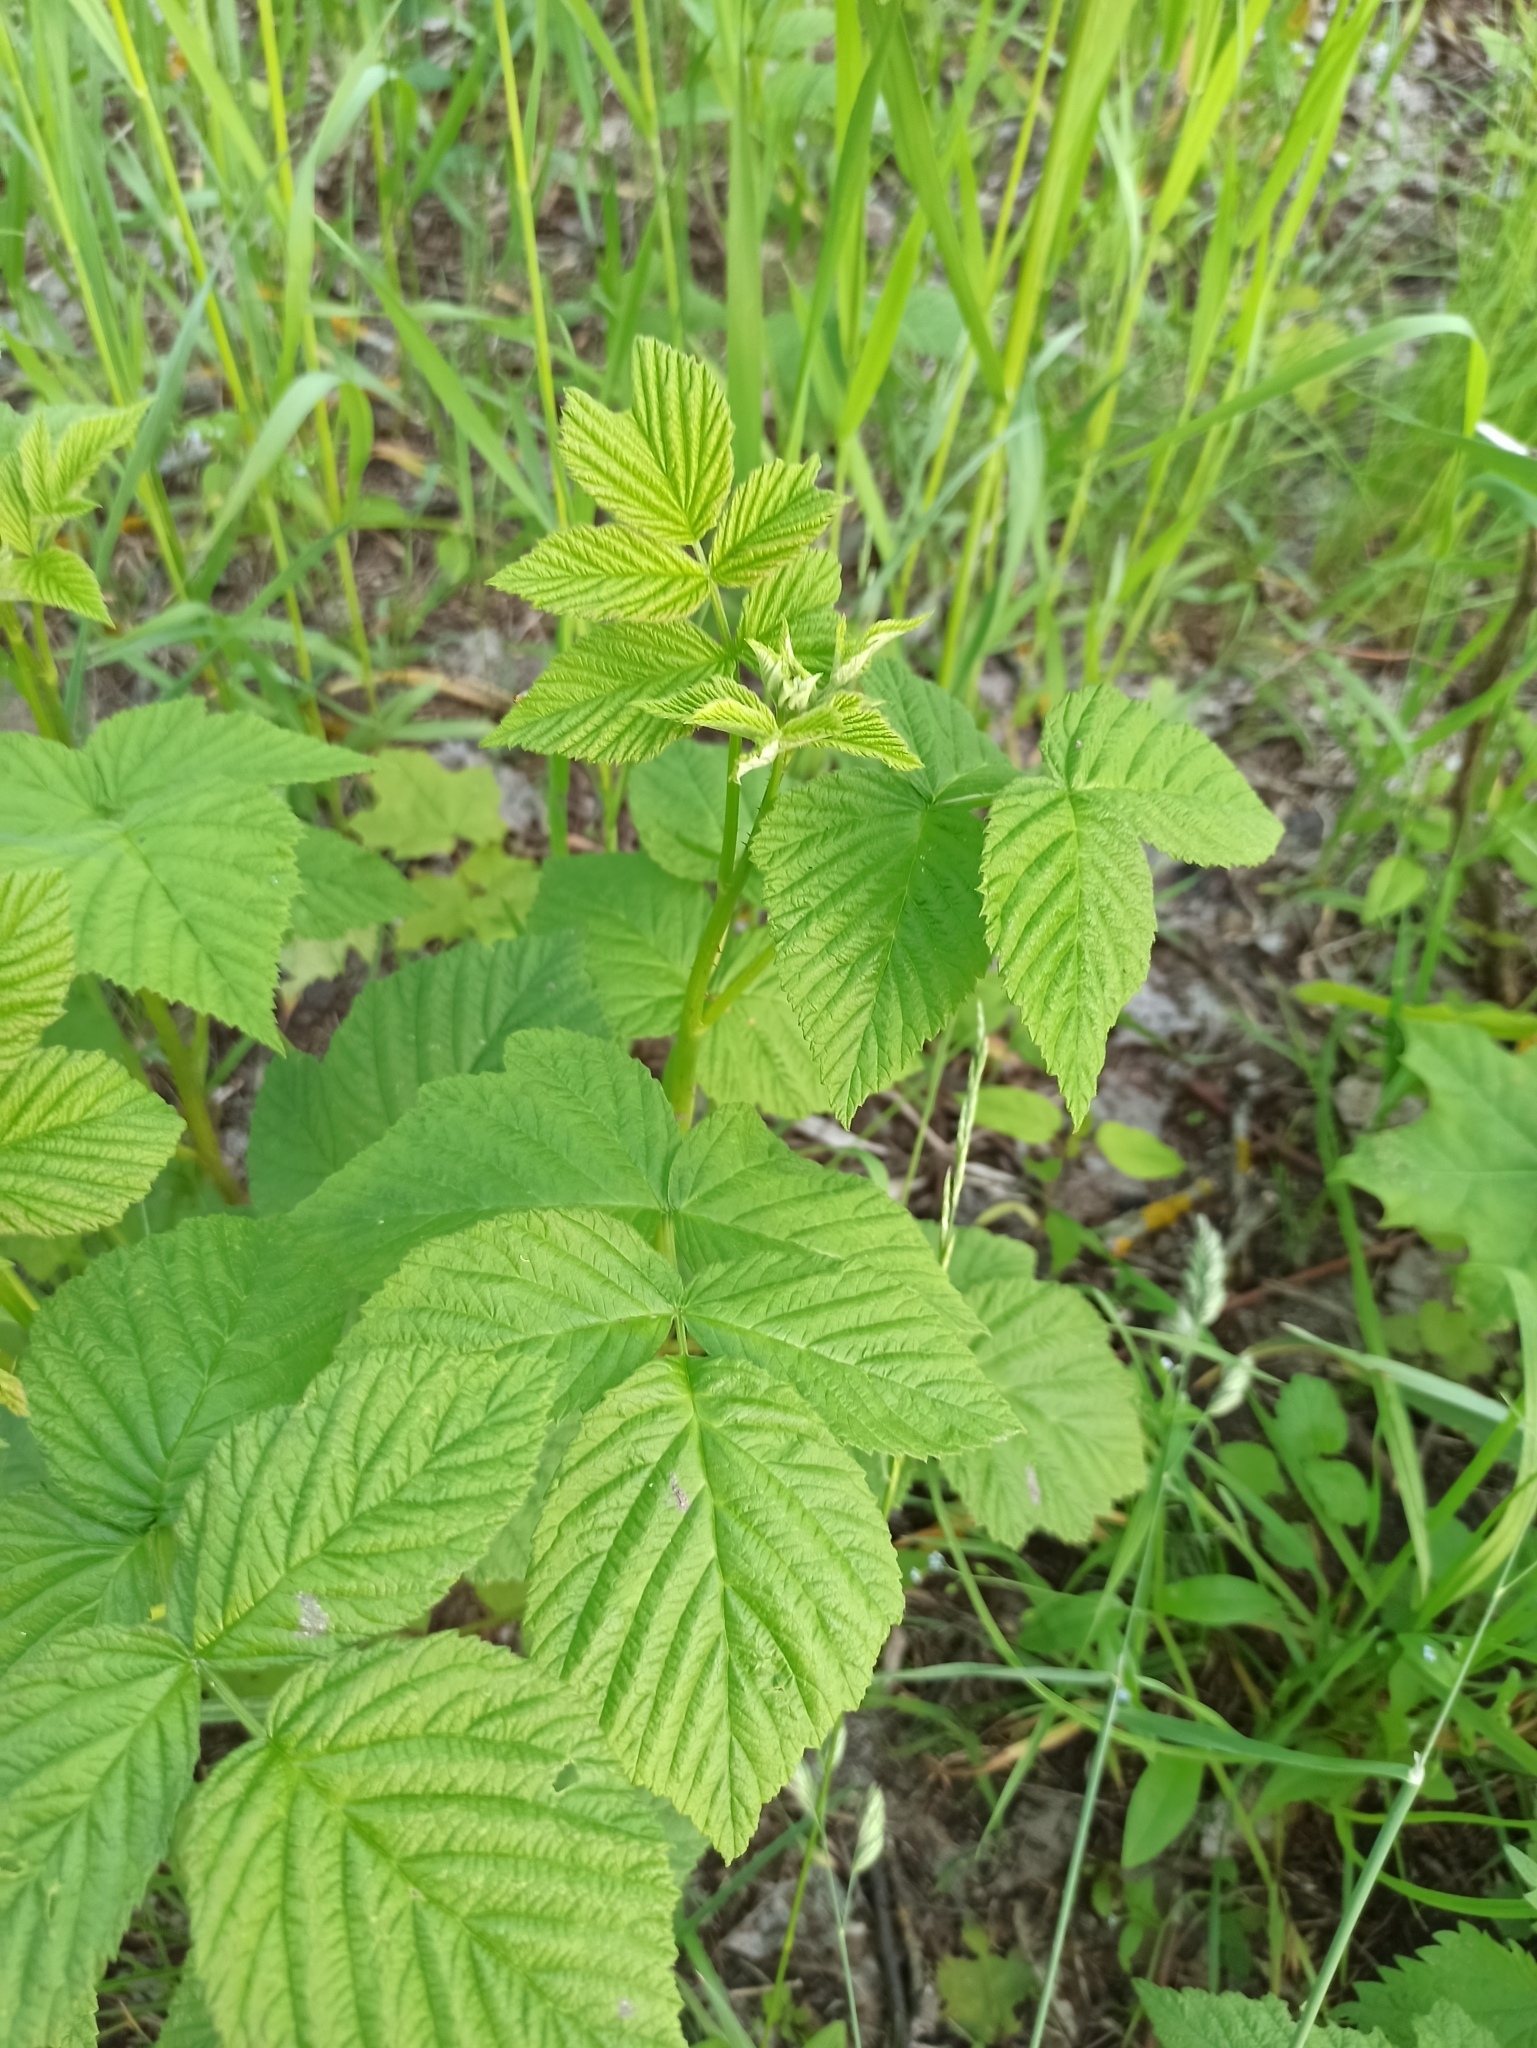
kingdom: Plantae
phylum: Tracheophyta
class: Magnoliopsida
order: Rosales
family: Rosaceae
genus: Rubus
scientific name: Rubus idaeus
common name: Raspberry
